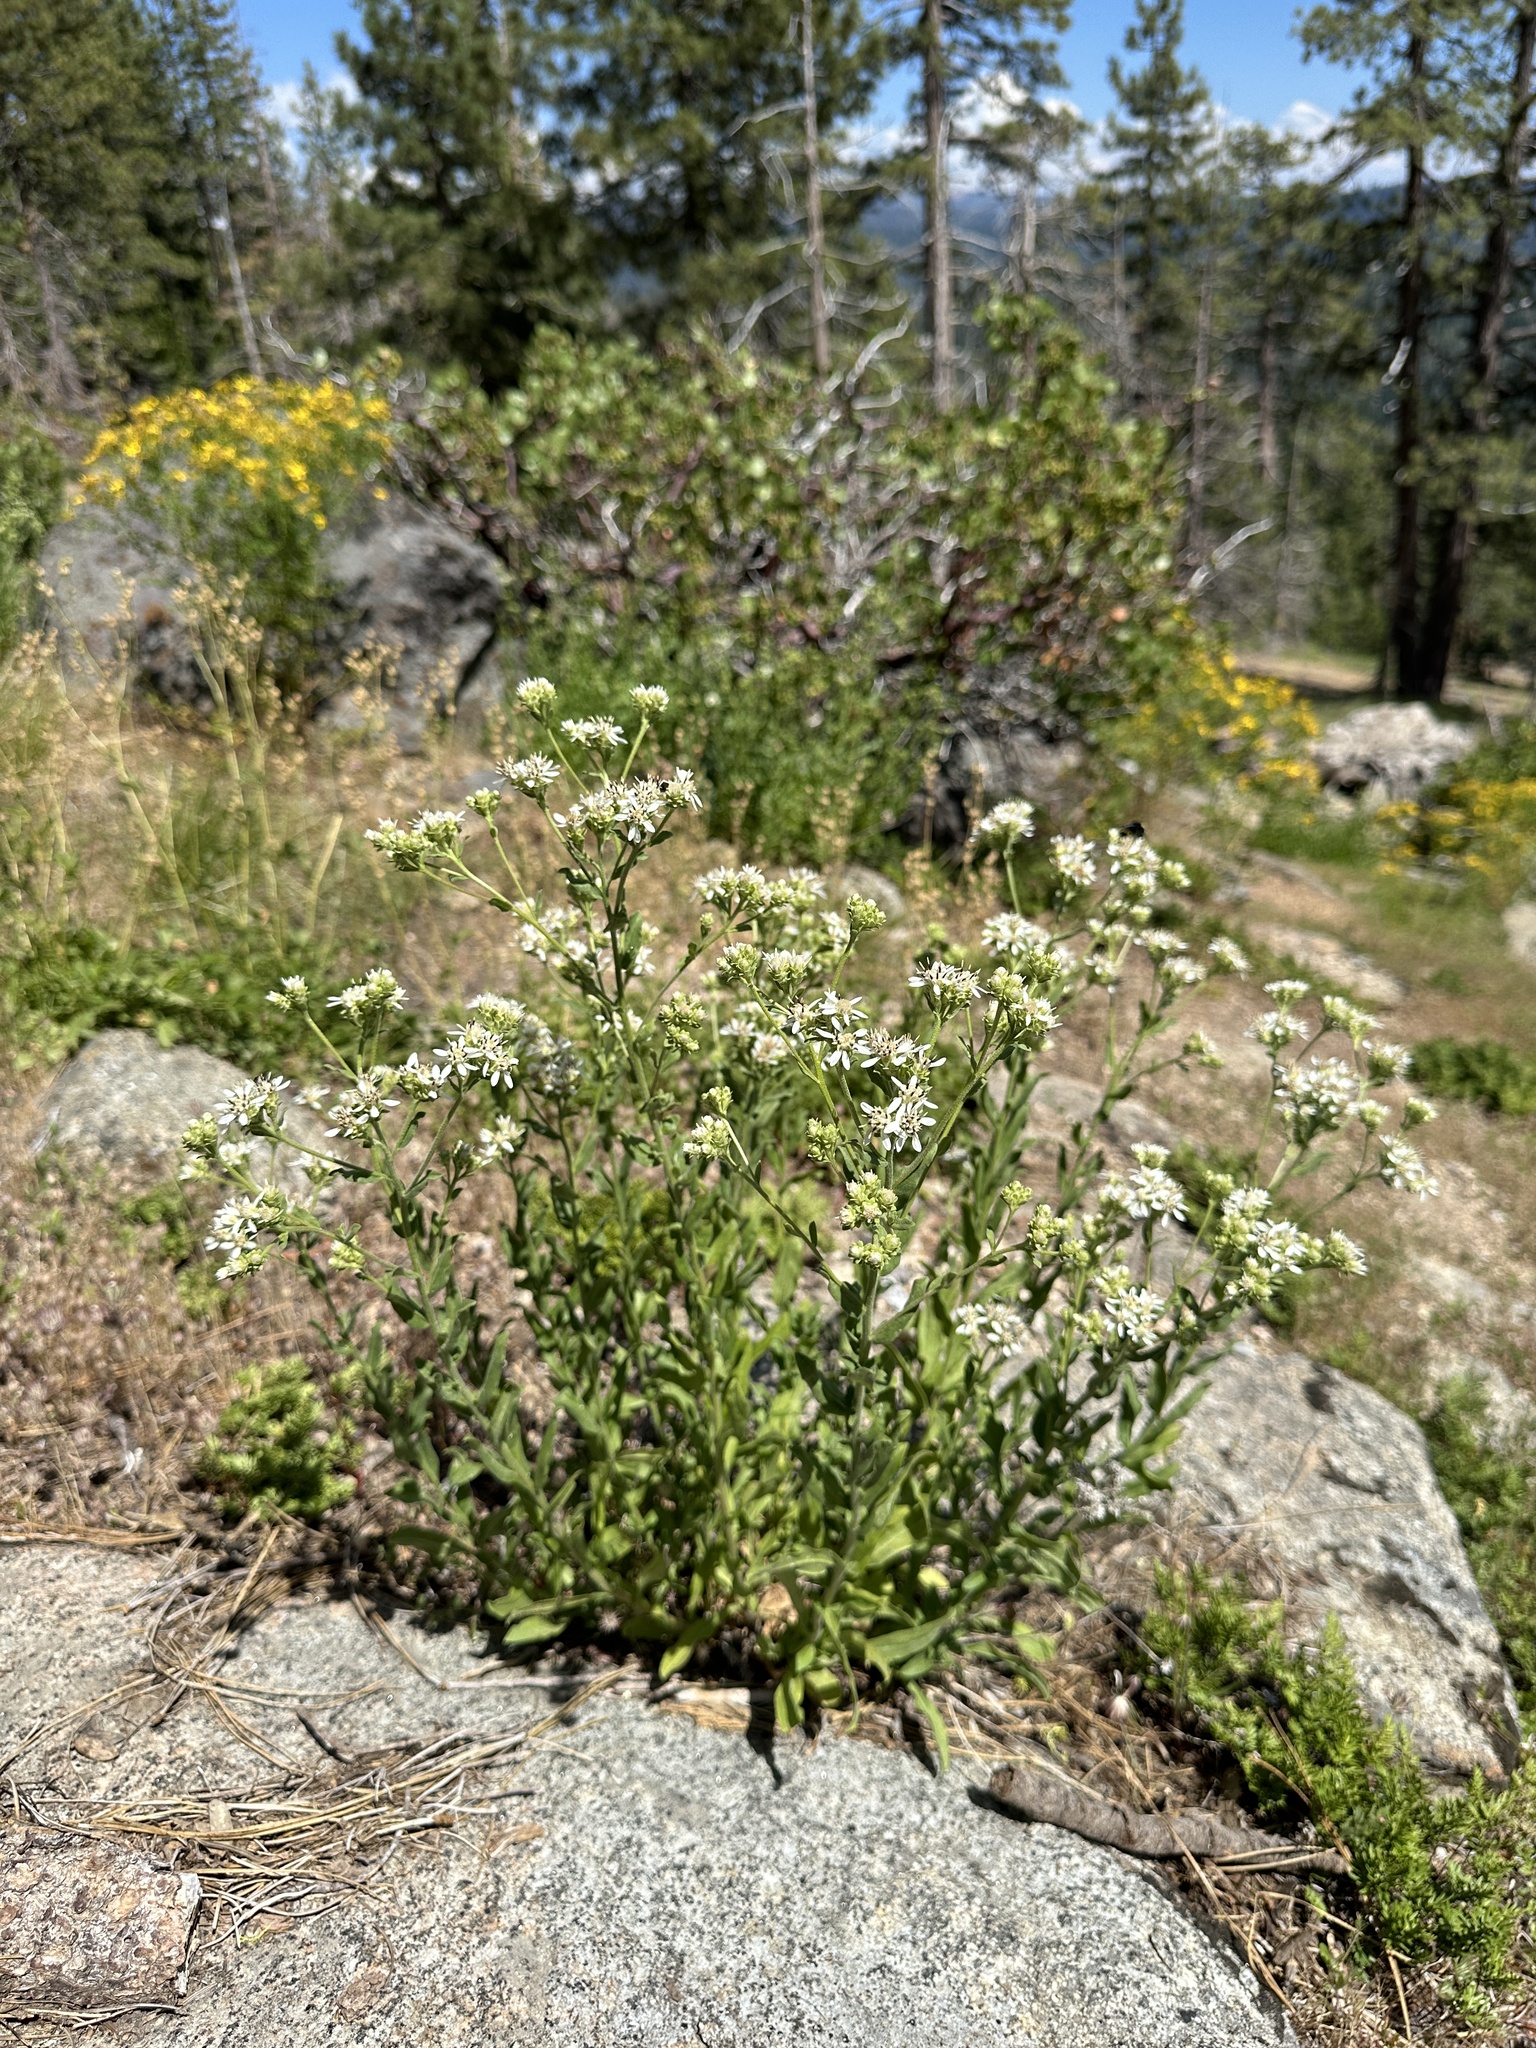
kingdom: Plantae
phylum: Tracheophyta
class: Magnoliopsida
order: Asterales
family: Asteraceae
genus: Sericocarpus
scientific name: Sericocarpus oregonensis
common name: Oregon white-top aster
